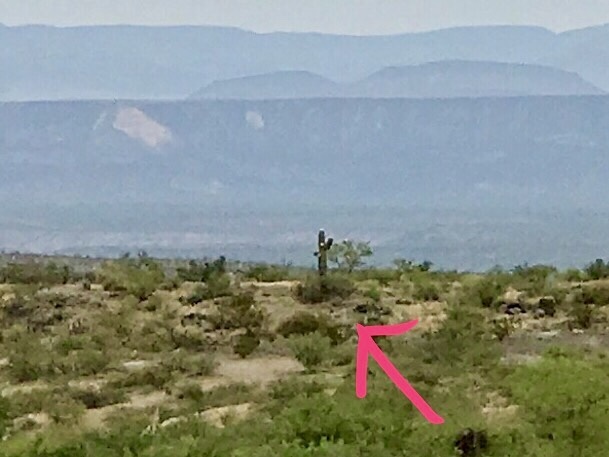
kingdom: Plantae
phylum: Tracheophyta
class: Magnoliopsida
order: Caryophyllales
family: Cactaceae
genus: Carnegiea
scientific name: Carnegiea gigantea
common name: Saguaro
